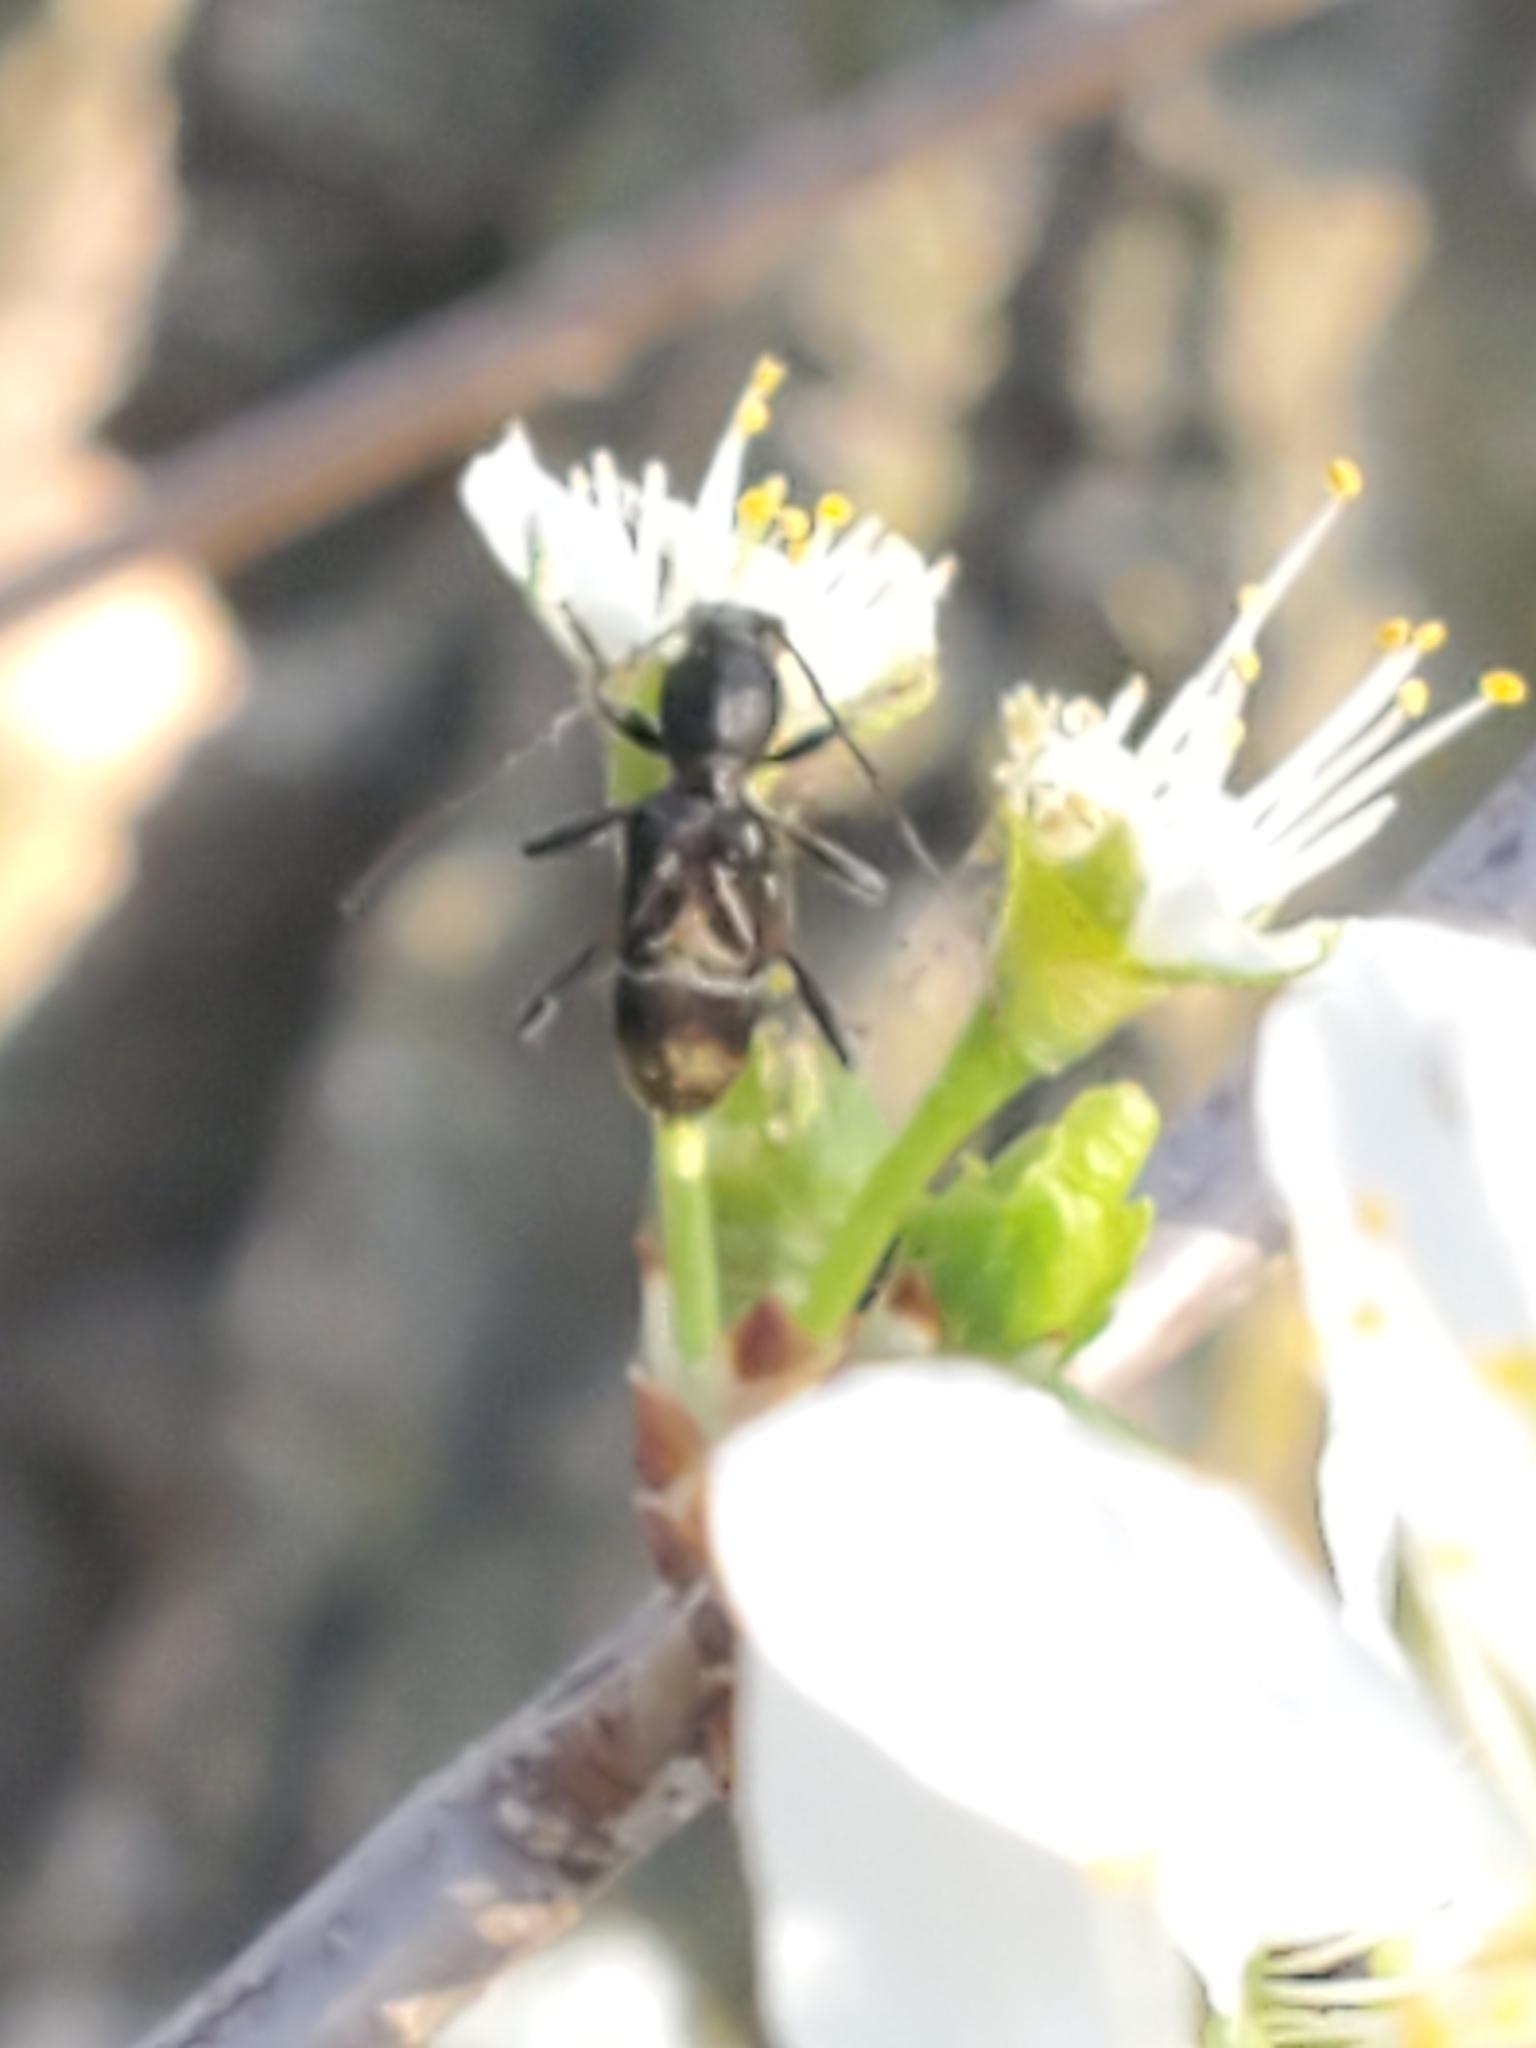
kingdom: Animalia
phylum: Arthropoda
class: Insecta
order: Coleoptera
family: Cerambycidae
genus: Cyrtophorus
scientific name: Cyrtophorus verrucosus
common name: Ant-like longhorn beetle
